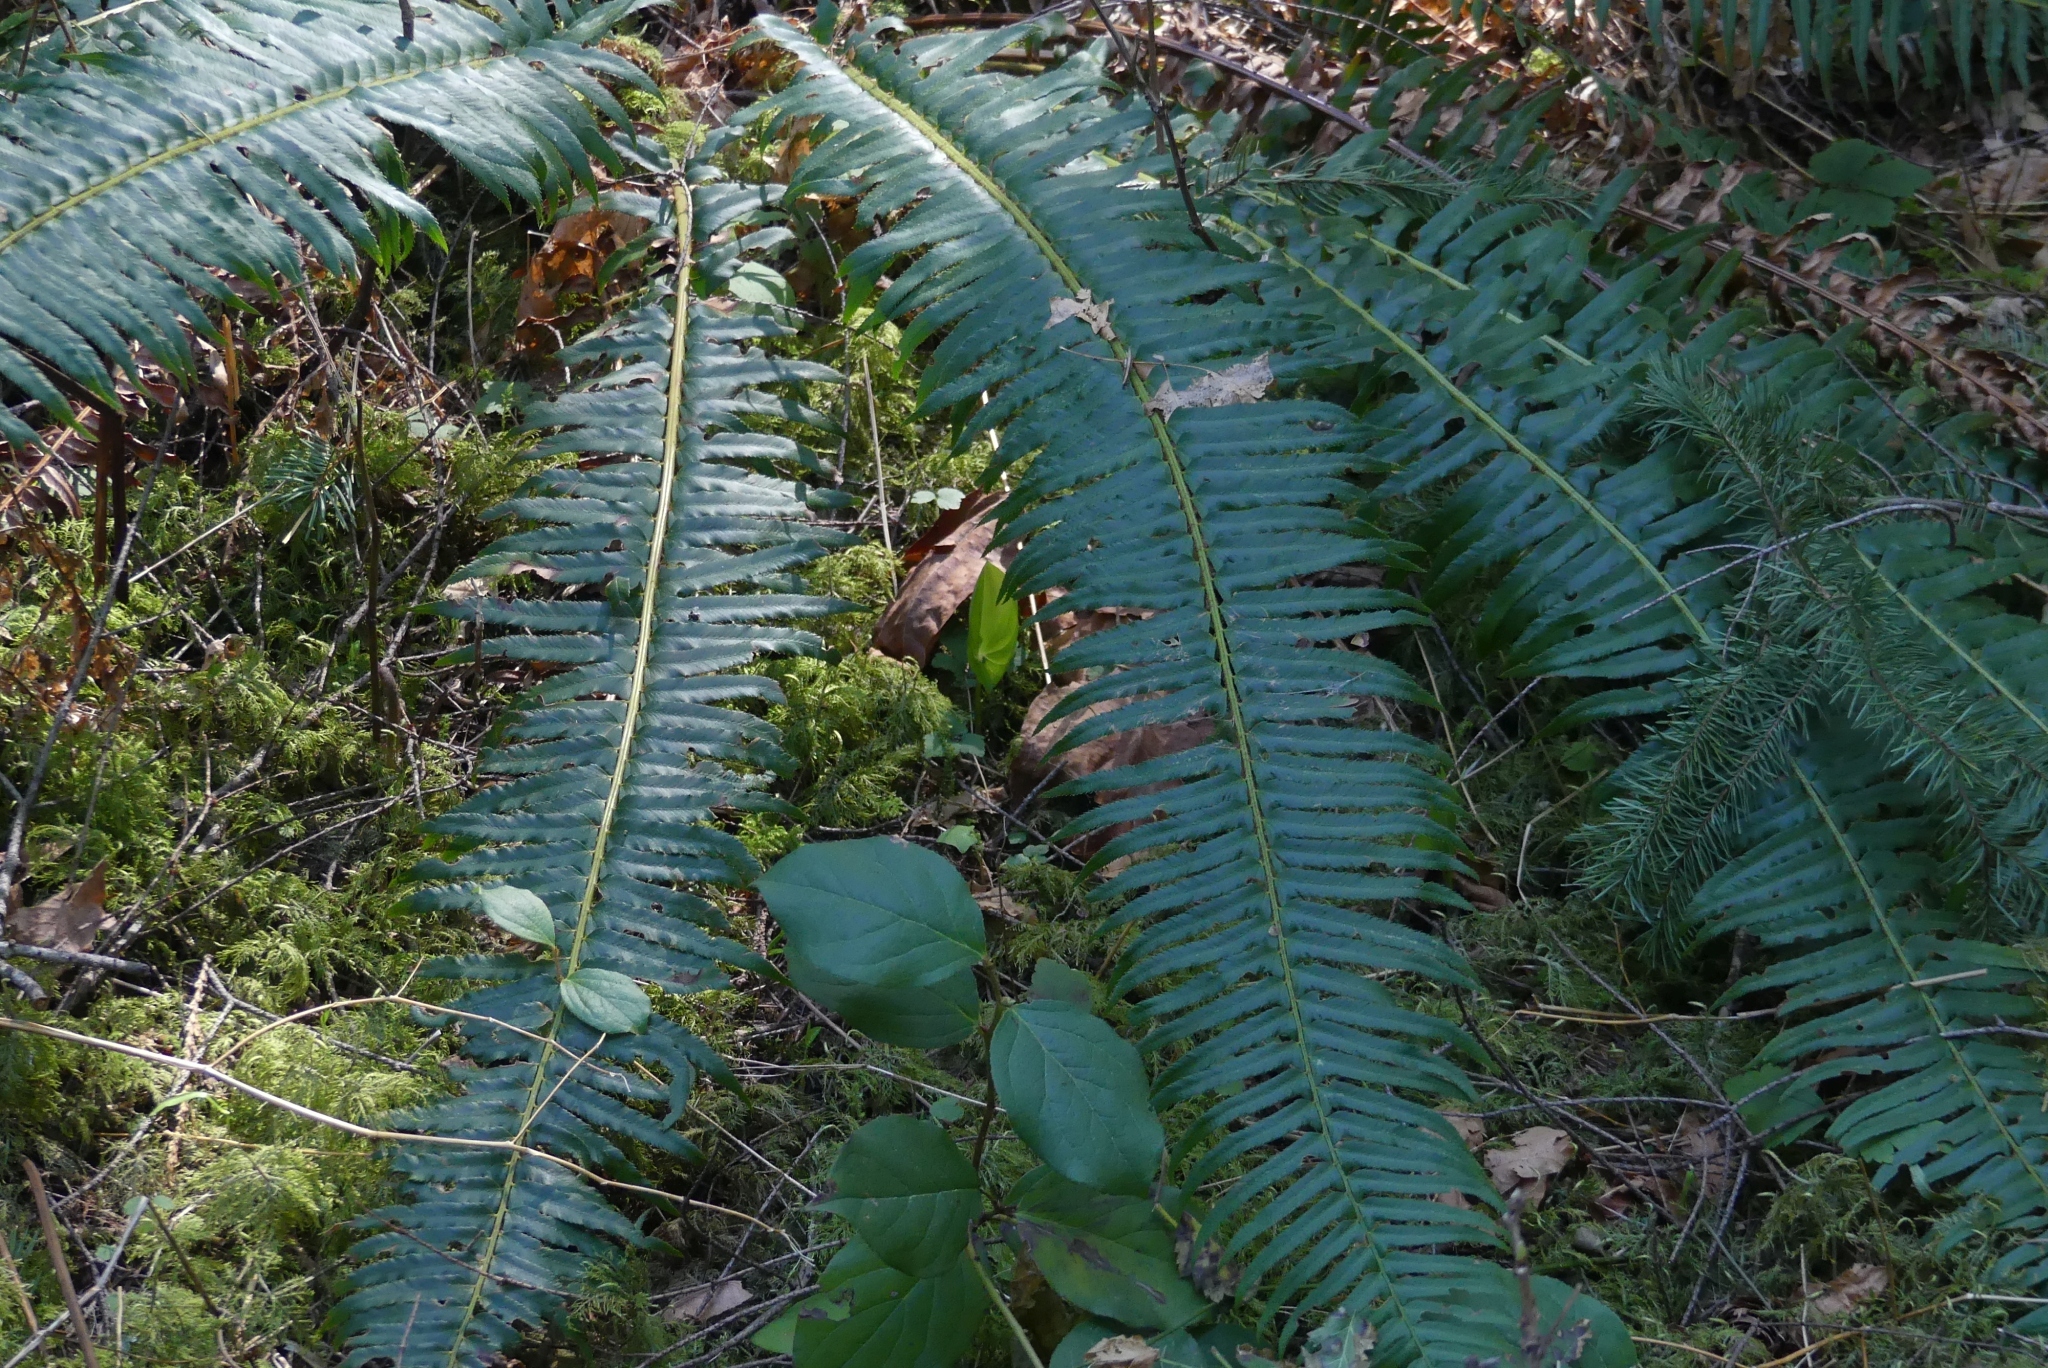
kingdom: Plantae
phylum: Tracheophyta
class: Polypodiopsida
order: Polypodiales
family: Dryopteridaceae
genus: Polystichum
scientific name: Polystichum munitum
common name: Western sword-fern
